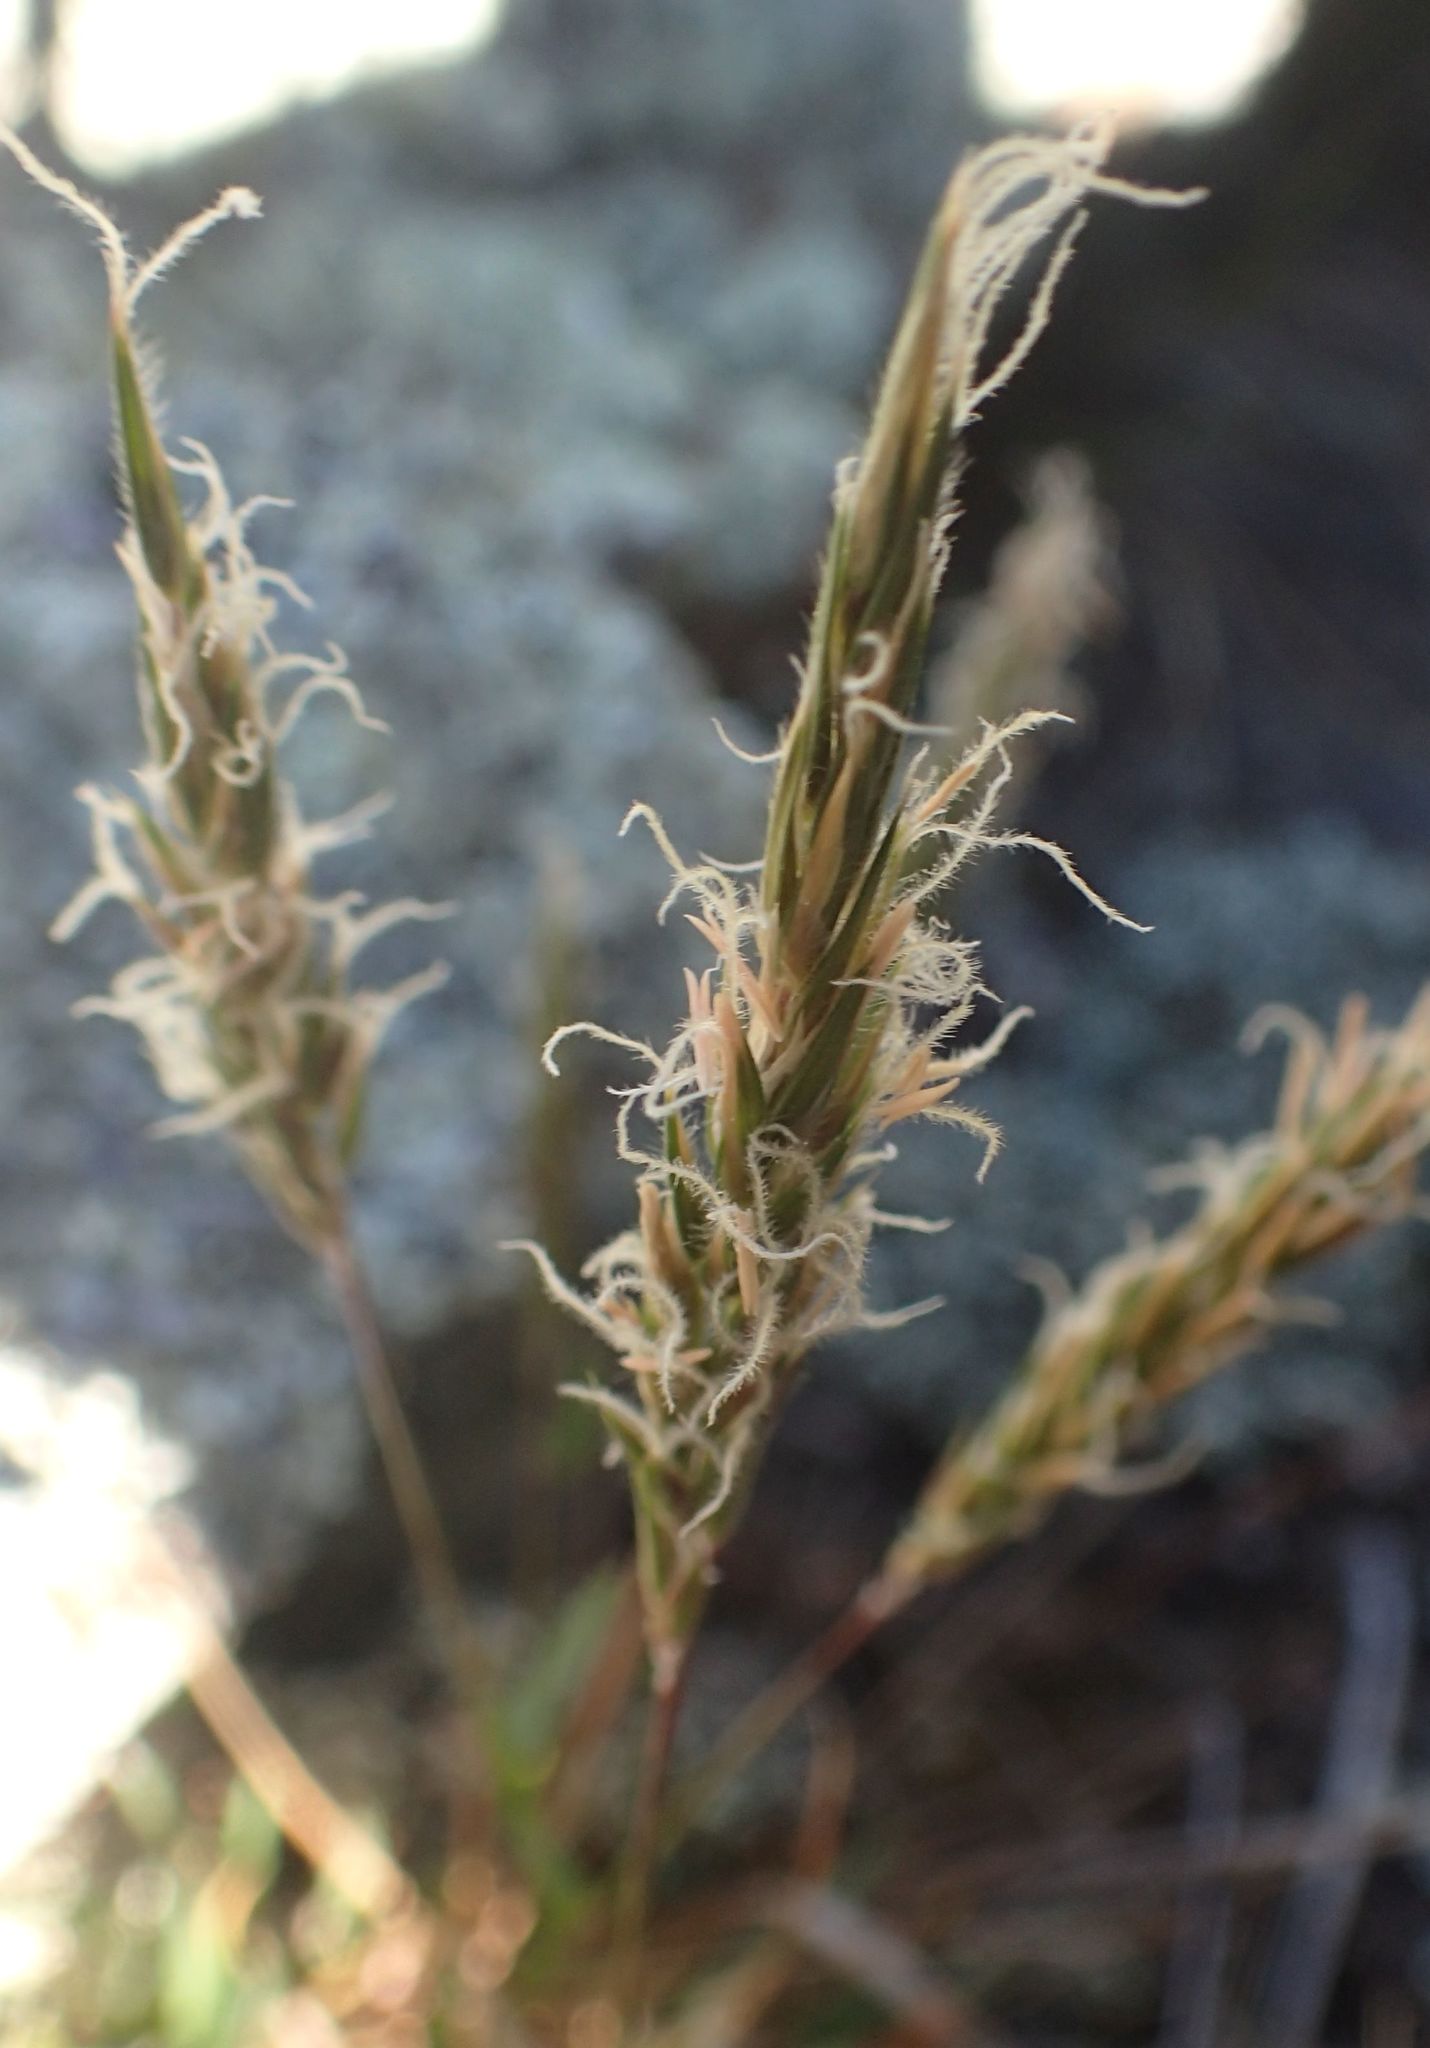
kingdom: Plantae
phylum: Tracheophyta
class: Liliopsida
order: Poales
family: Poaceae
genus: Anthoxanthum
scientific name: Anthoxanthum odoratum
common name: Sweet vernalgrass
